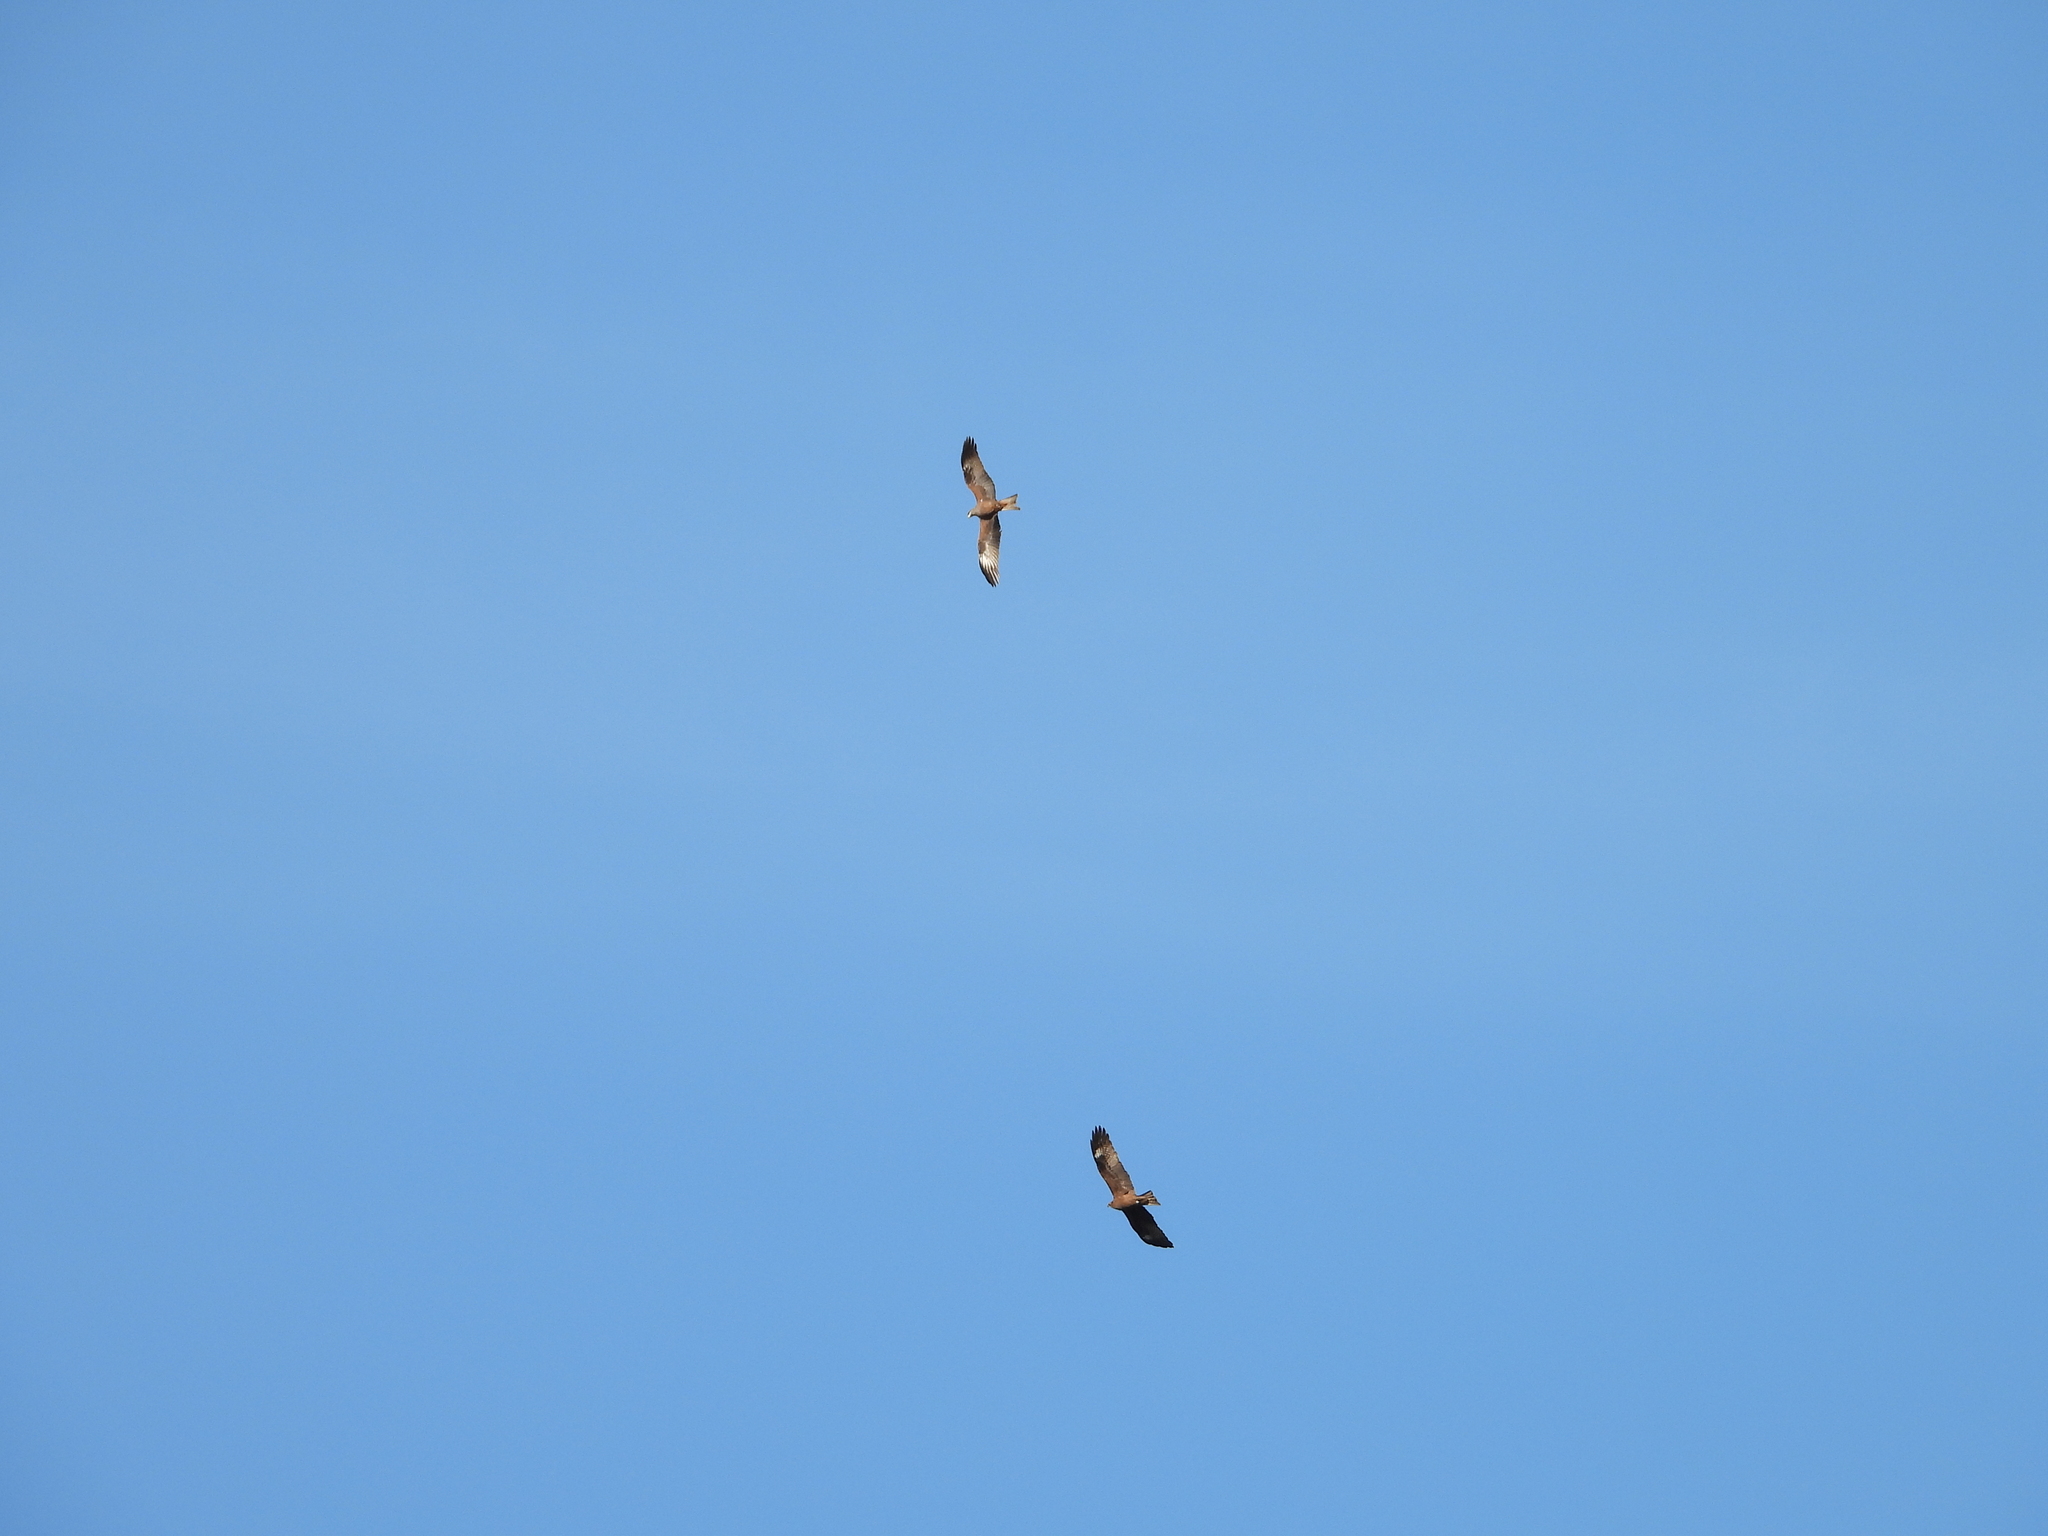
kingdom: Animalia
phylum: Chordata
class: Aves
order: Accipitriformes
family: Accipitridae
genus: Milvus
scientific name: Milvus migrans
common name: Black kite
